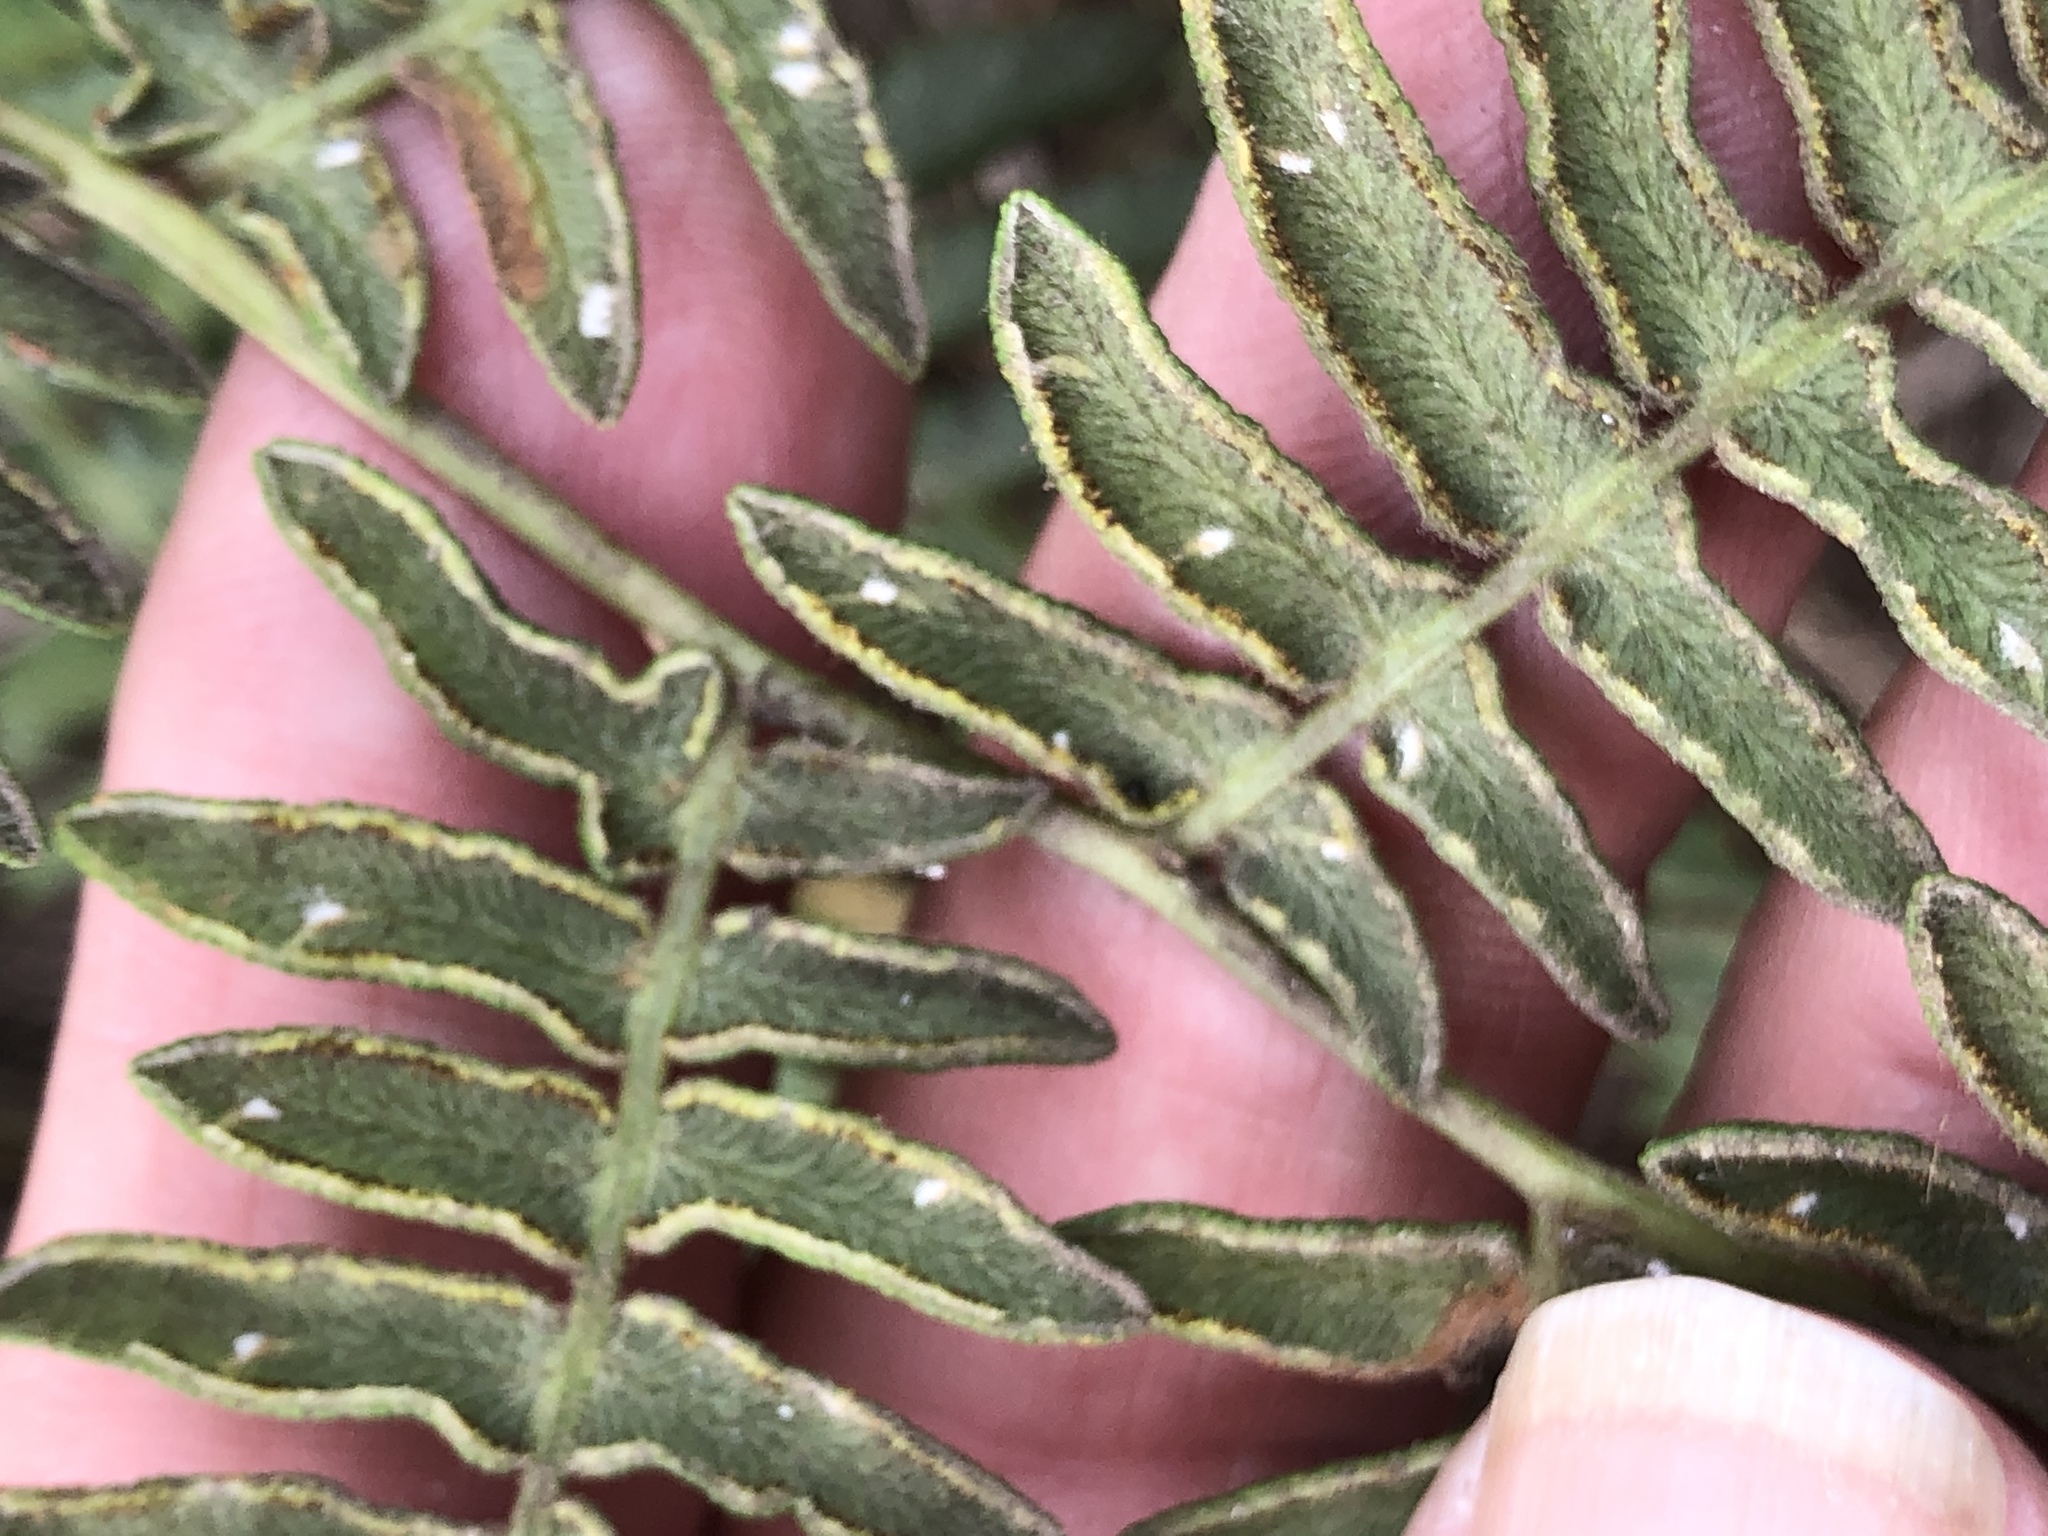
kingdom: Plantae
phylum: Tracheophyta
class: Polypodiopsida
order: Polypodiales
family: Dennstaedtiaceae
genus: Pteridium
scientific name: Pteridium aquilinum
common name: Bracken
